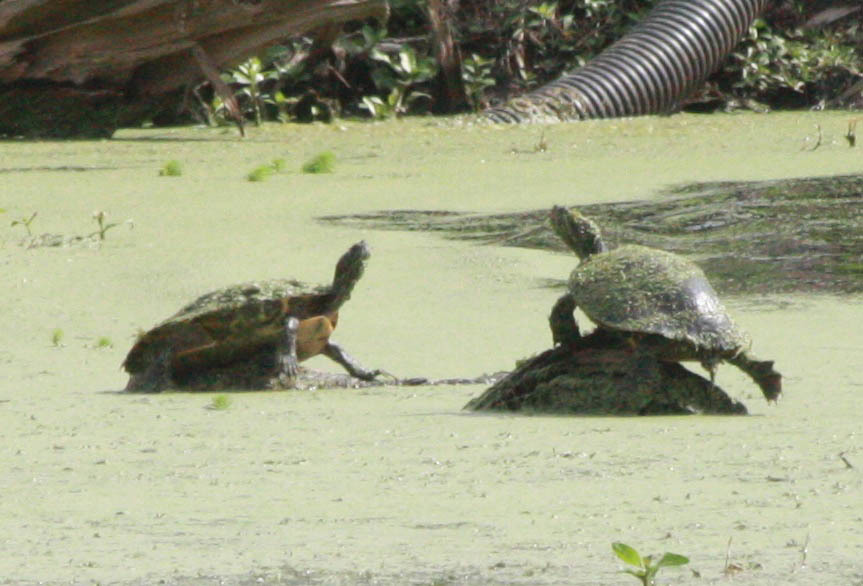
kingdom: Animalia
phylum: Chordata
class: Testudines
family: Emydidae
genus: Trachemys
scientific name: Trachemys scripta
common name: Slider
